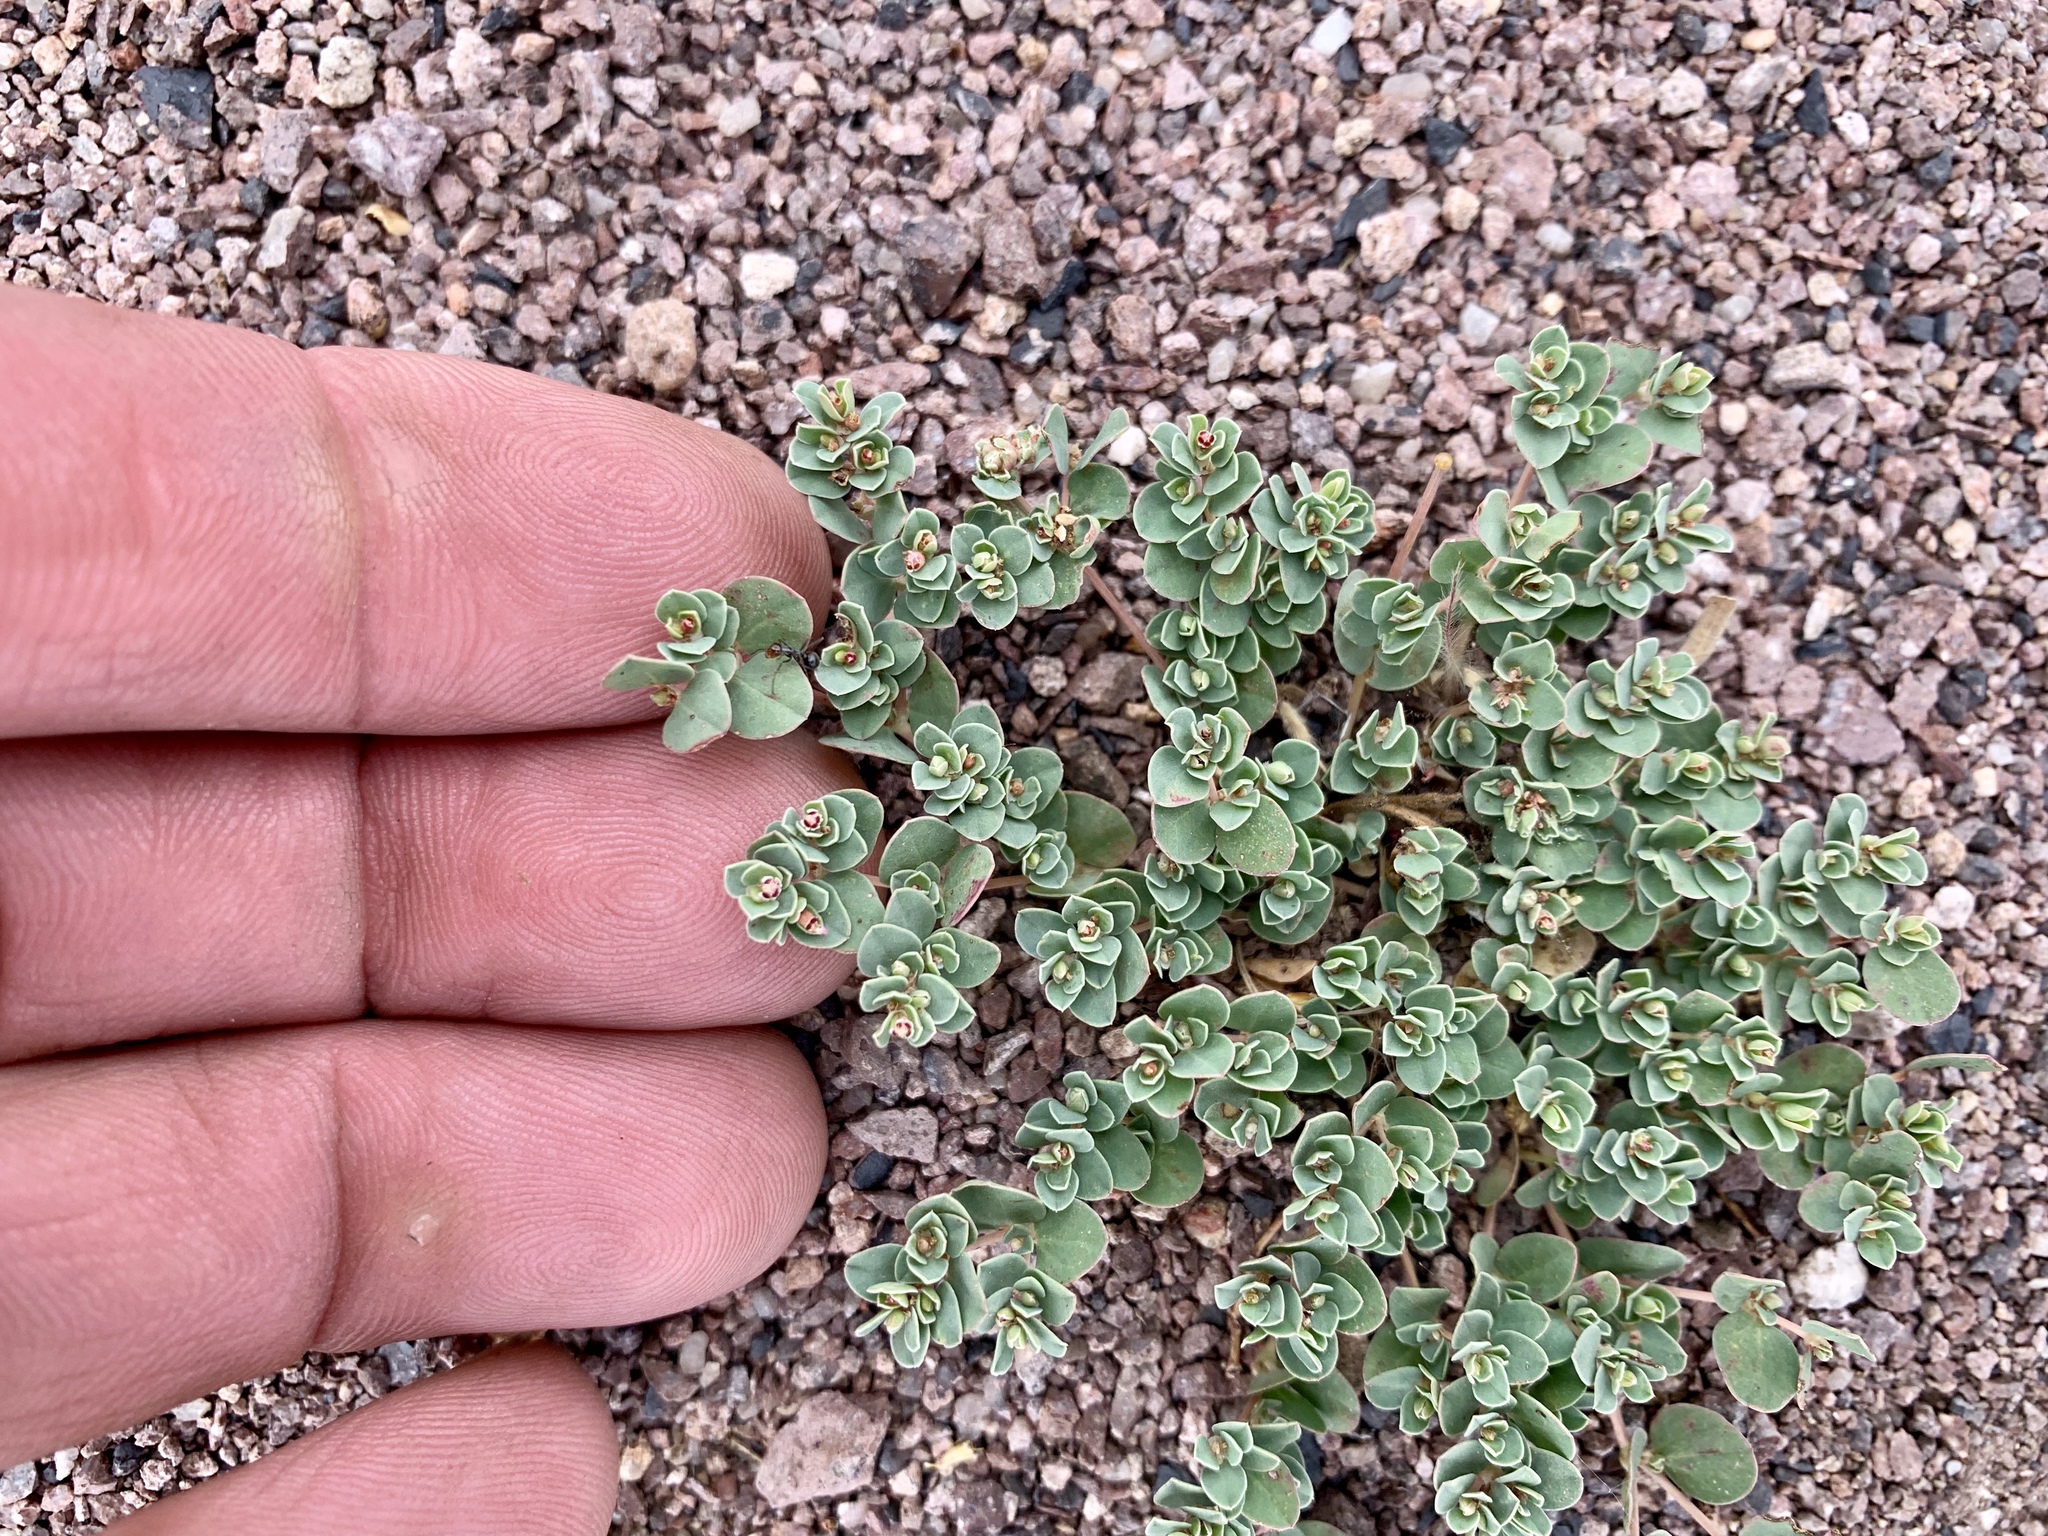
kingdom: Plantae
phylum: Tracheophyta
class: Magnoliopsida
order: Malpighiales
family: Euphorbiaceae
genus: Euphorbia
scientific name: Euphorbia albomarginata
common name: Whitemargin sandmat
